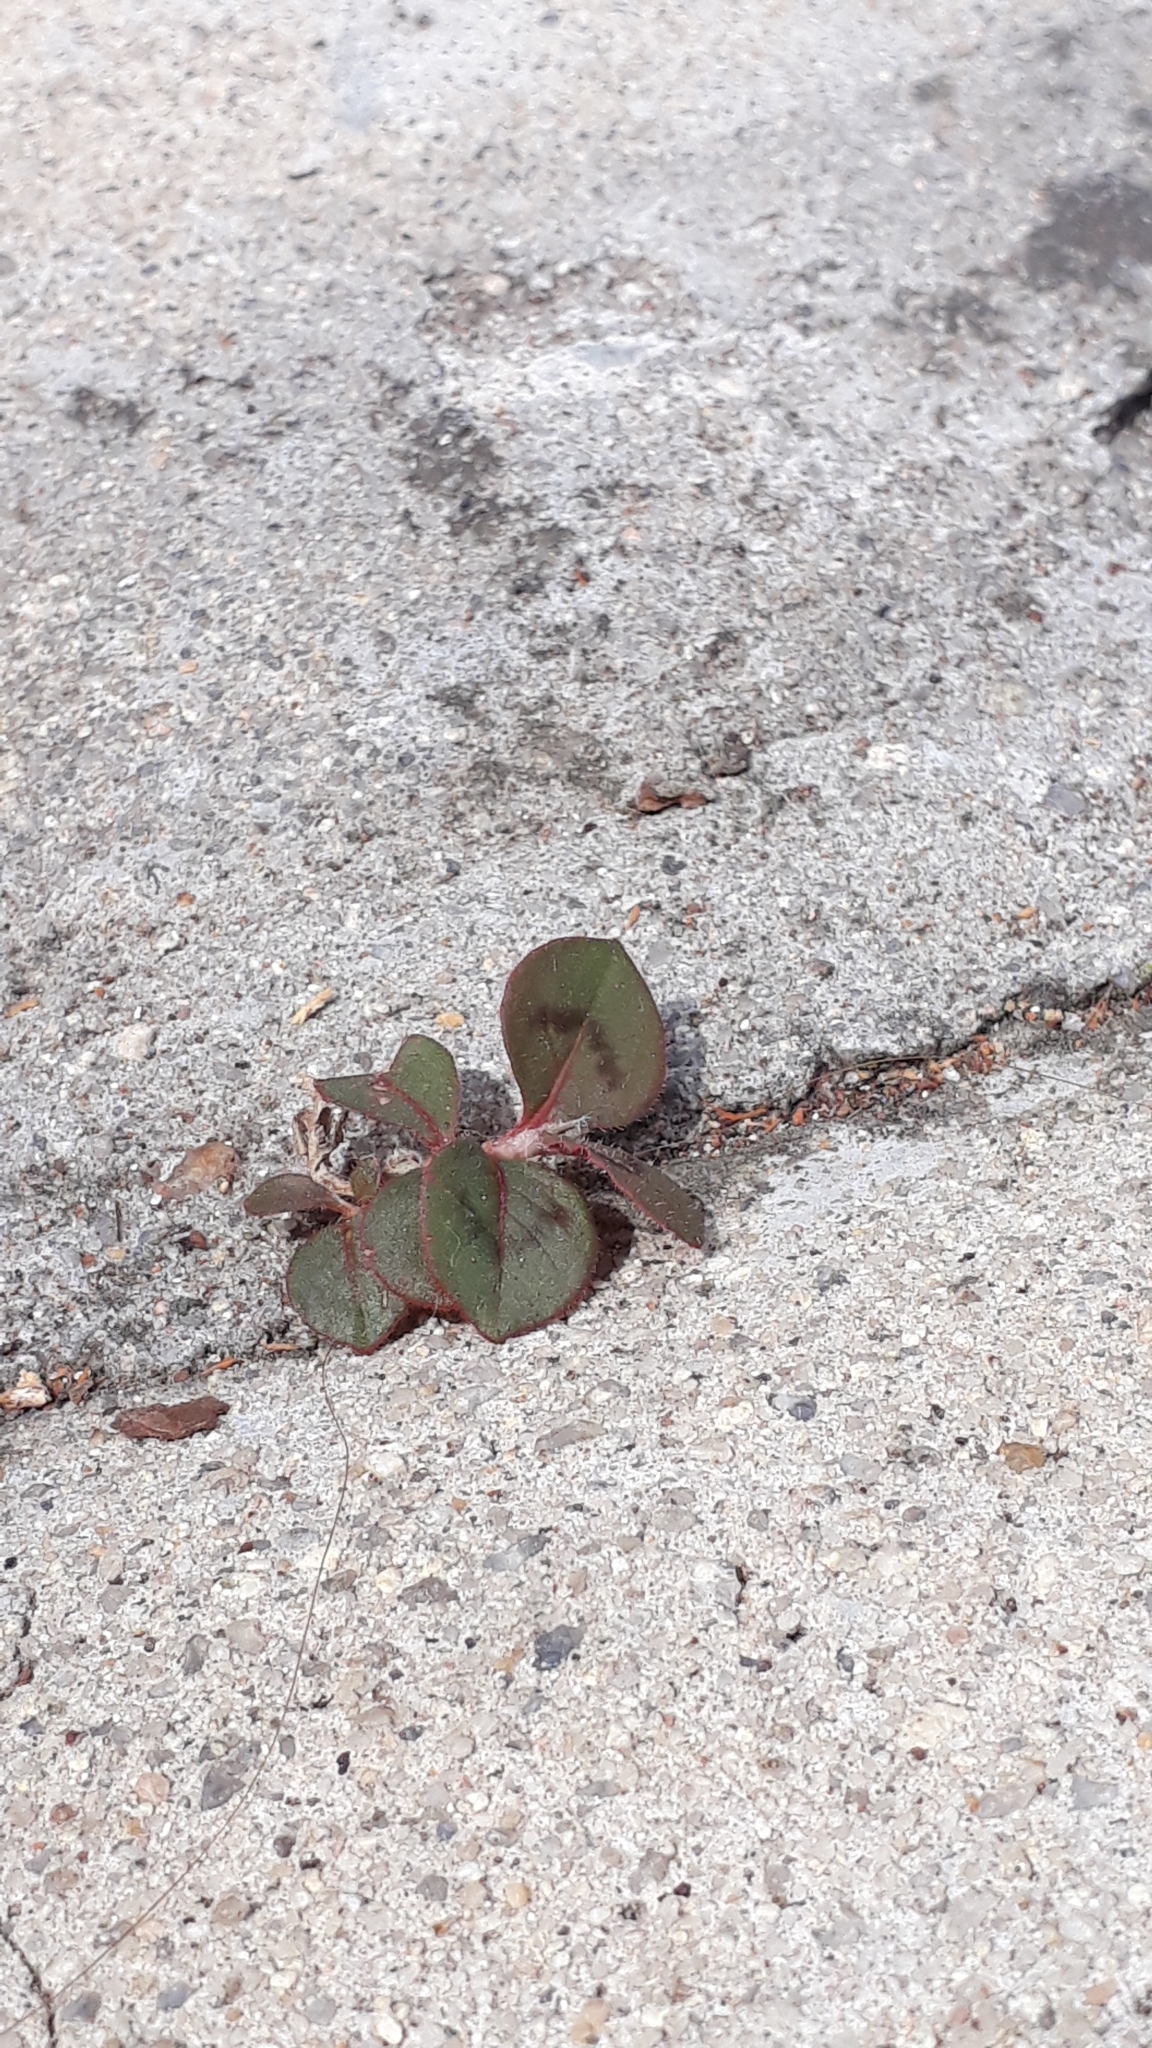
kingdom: Plantae
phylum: Tracheophyta
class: Magnoliopsida
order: Caryophyllales
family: Polygonaceae
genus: Persicaria
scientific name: Persicaria capitata
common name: Pinkhead smartweed
